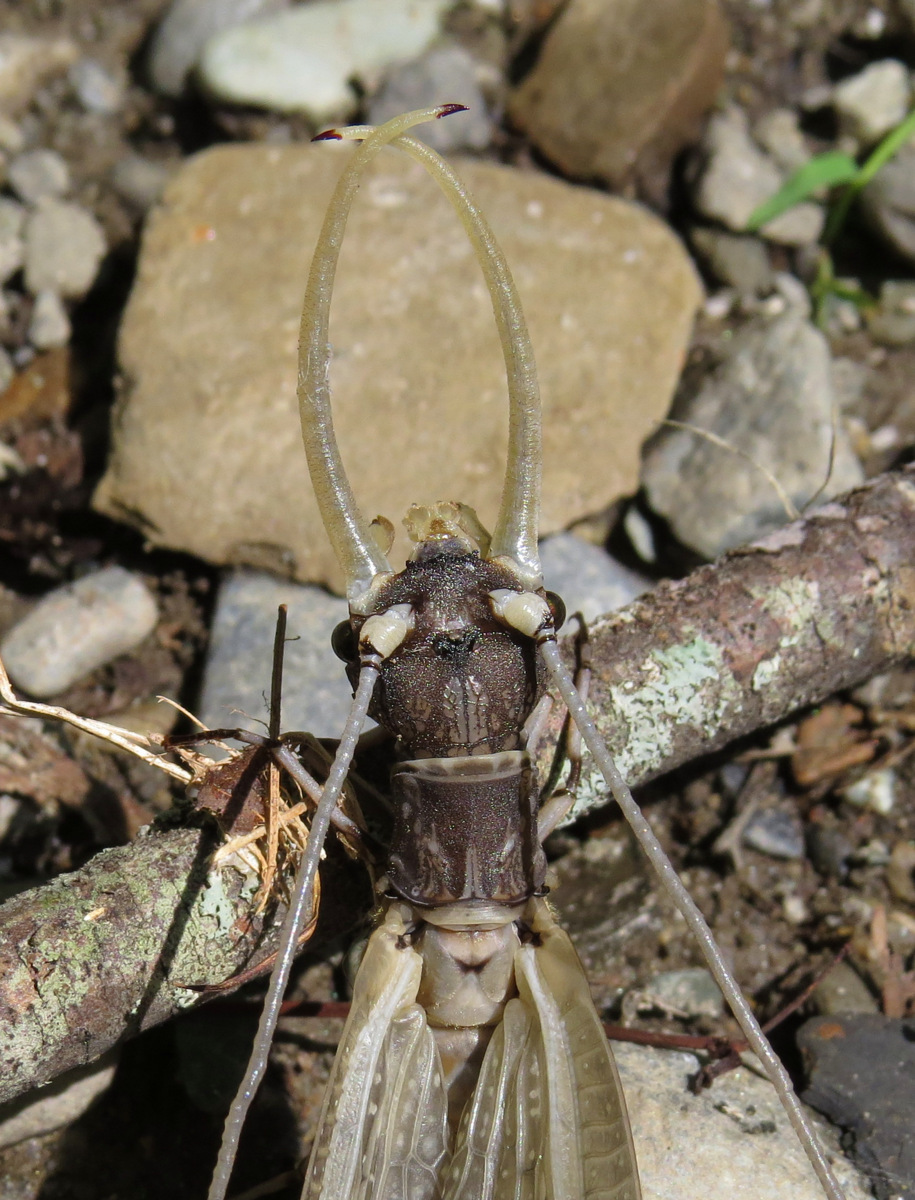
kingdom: Animalia
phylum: Arthropoda
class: Insecta
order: Megaloptera
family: Corydalidae
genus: Corydalus
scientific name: Corydalus cornutus
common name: Dobsonfly
